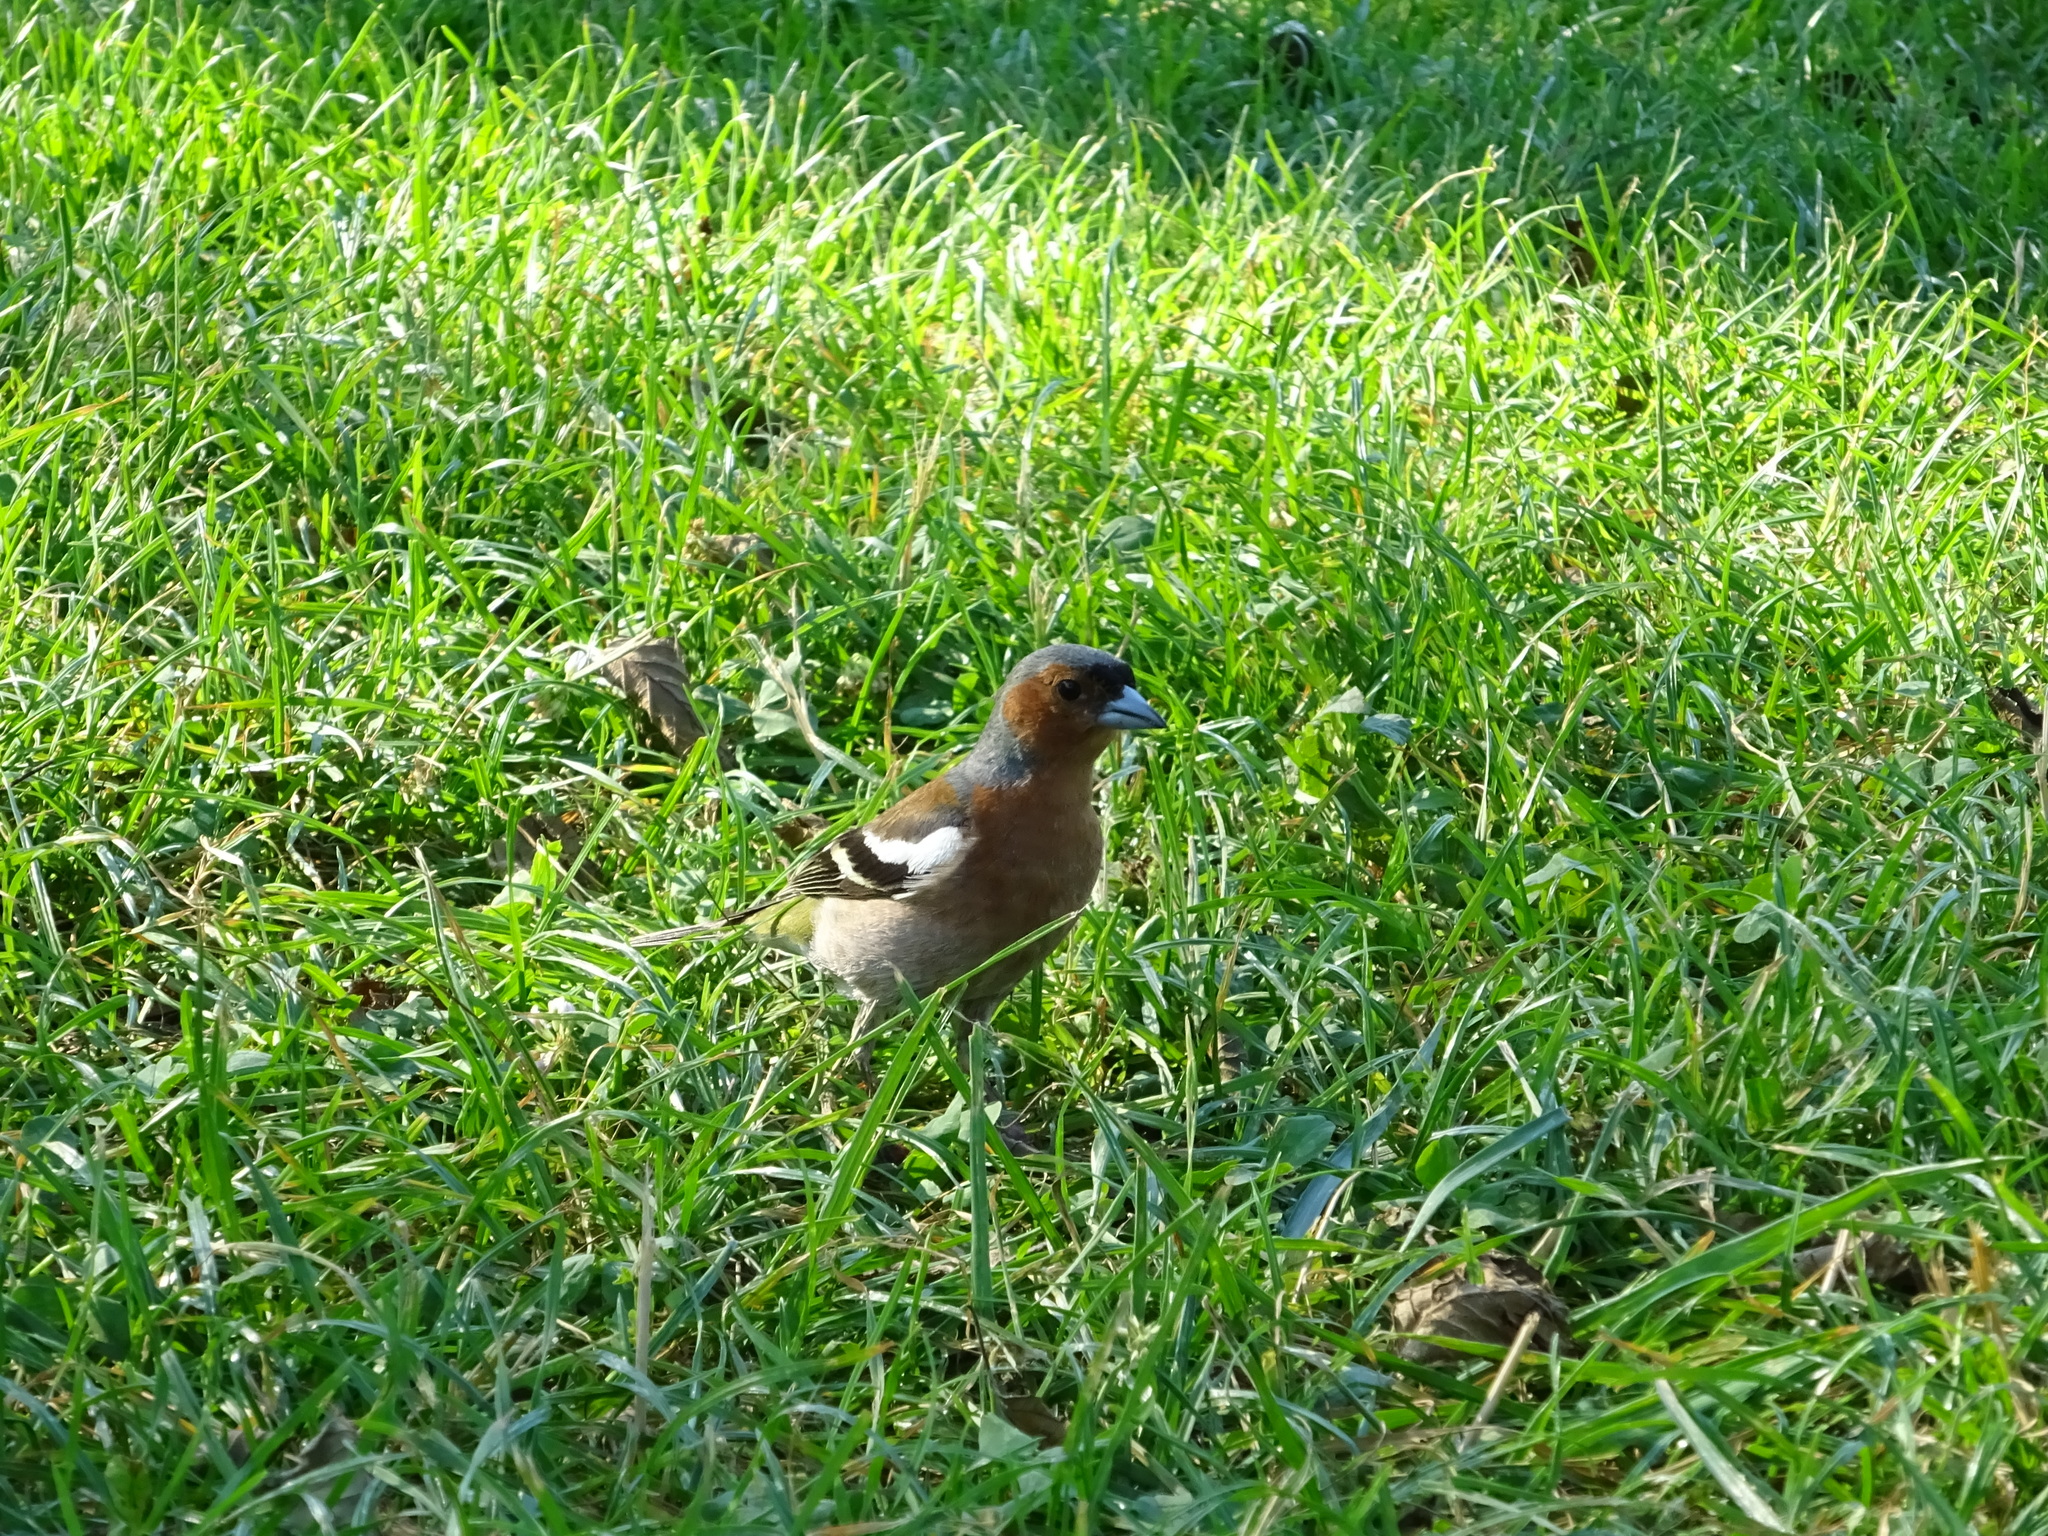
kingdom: Animalia
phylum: Chordata
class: Aves
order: Passeriformes
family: Fringillidae
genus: Fringilla
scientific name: Fringilla coelebs
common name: Common chaffinch
